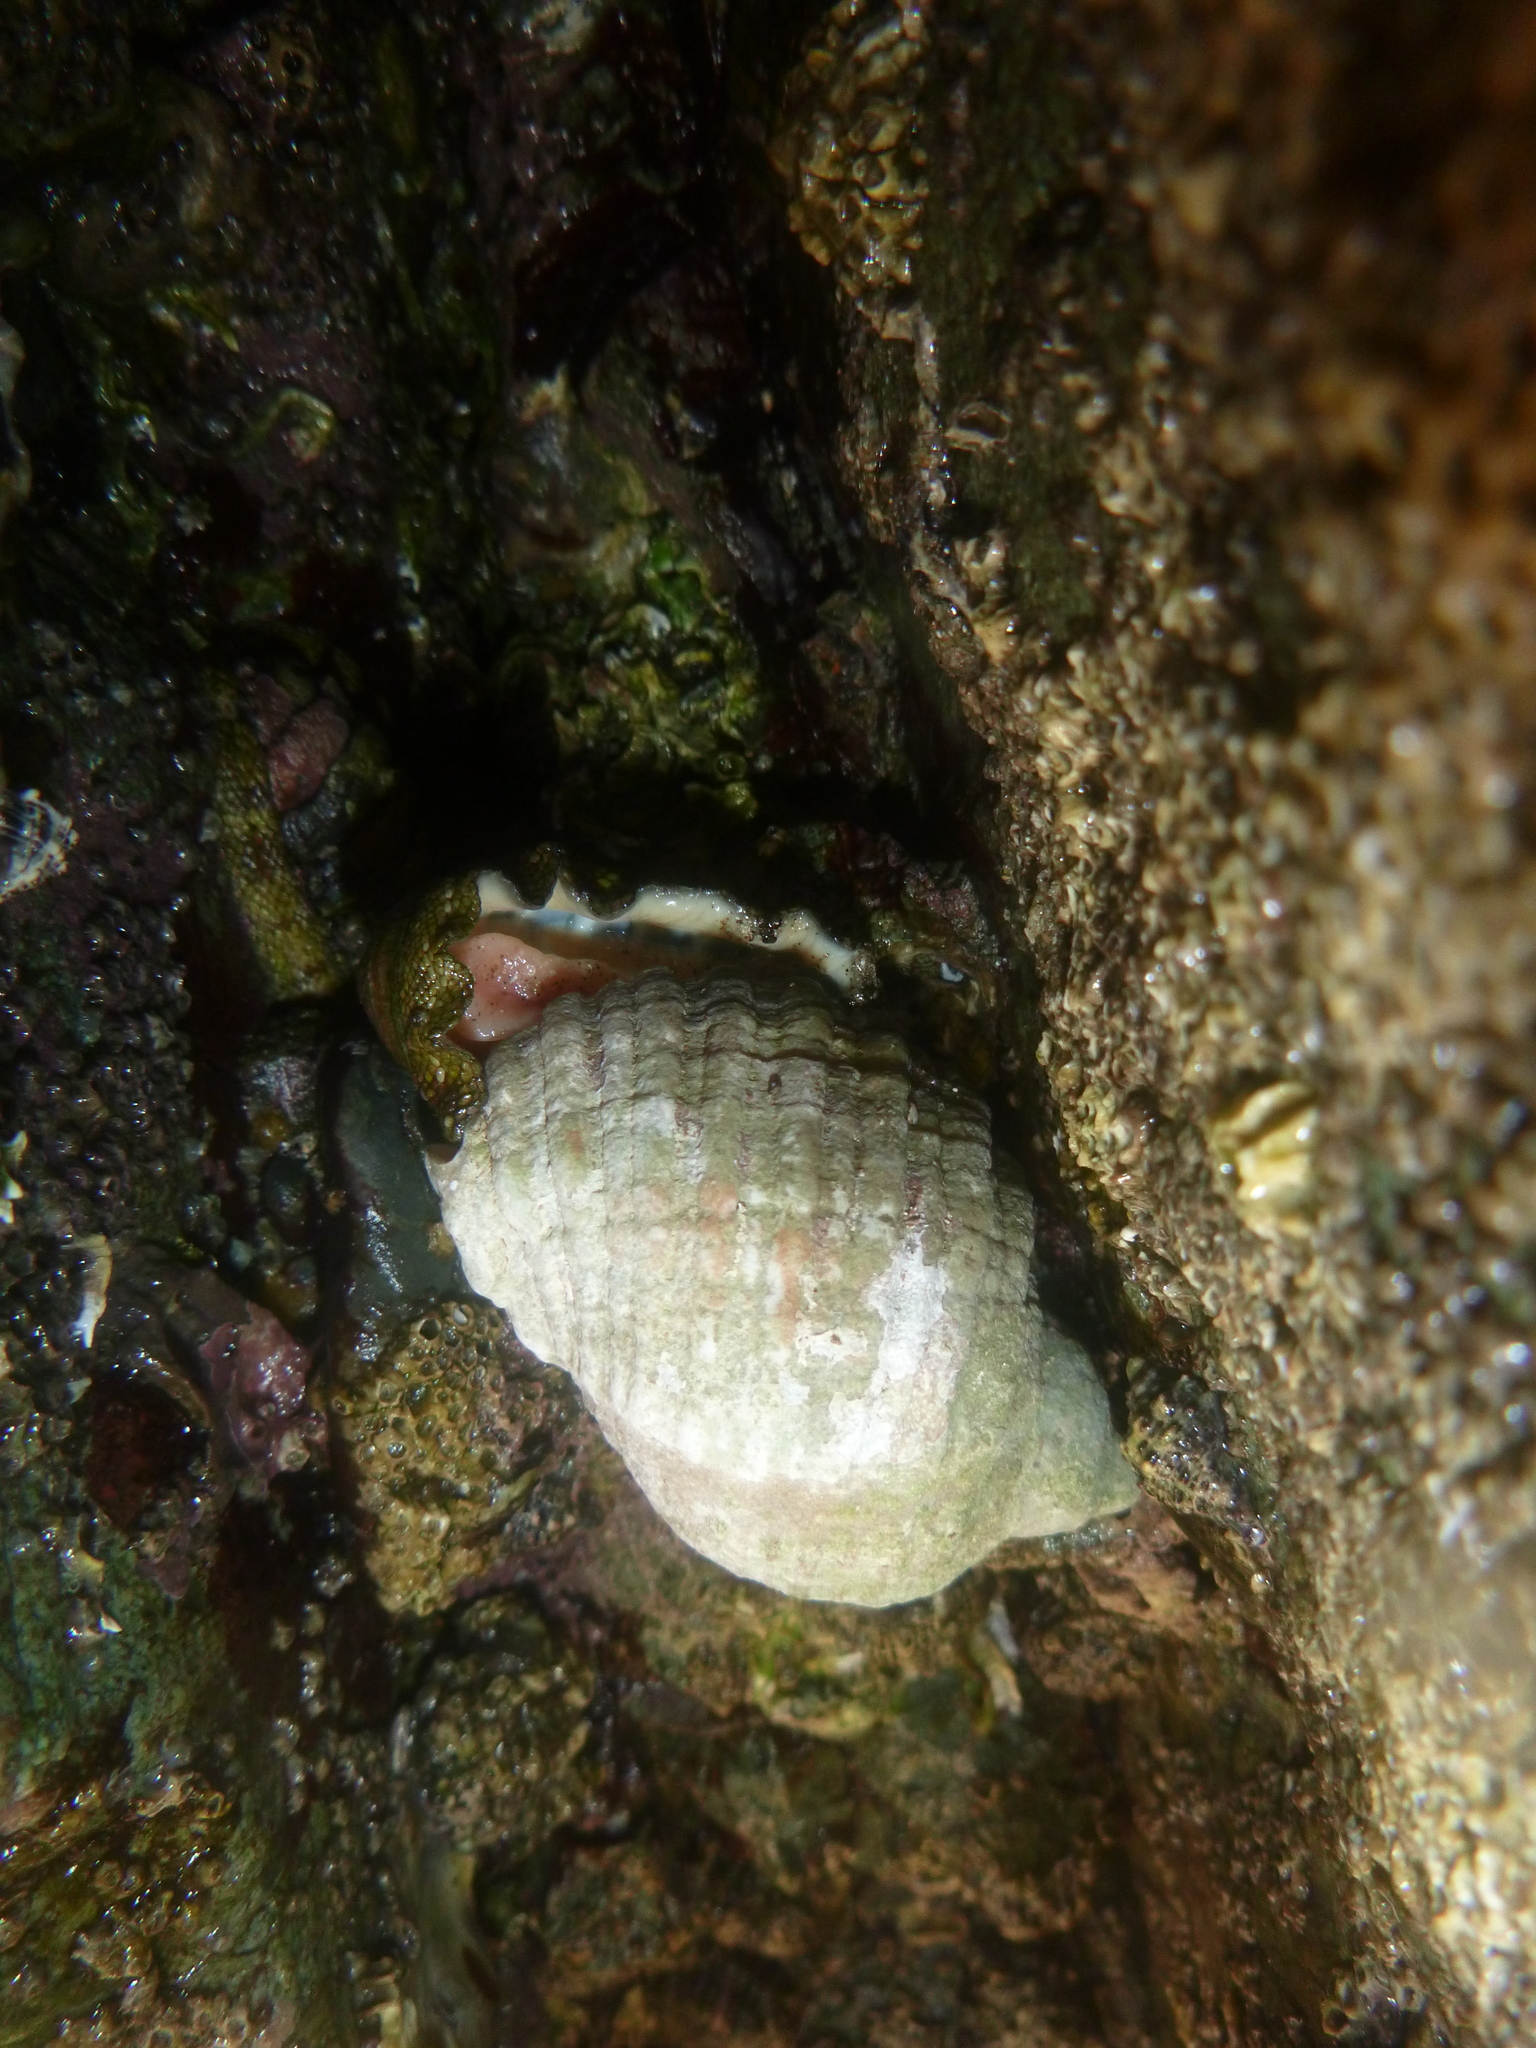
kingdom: Animalia
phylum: Mollusca
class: Gastropoda
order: Neogastropoda
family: Muricidae
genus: Dicathais
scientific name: Dicathais orbita
